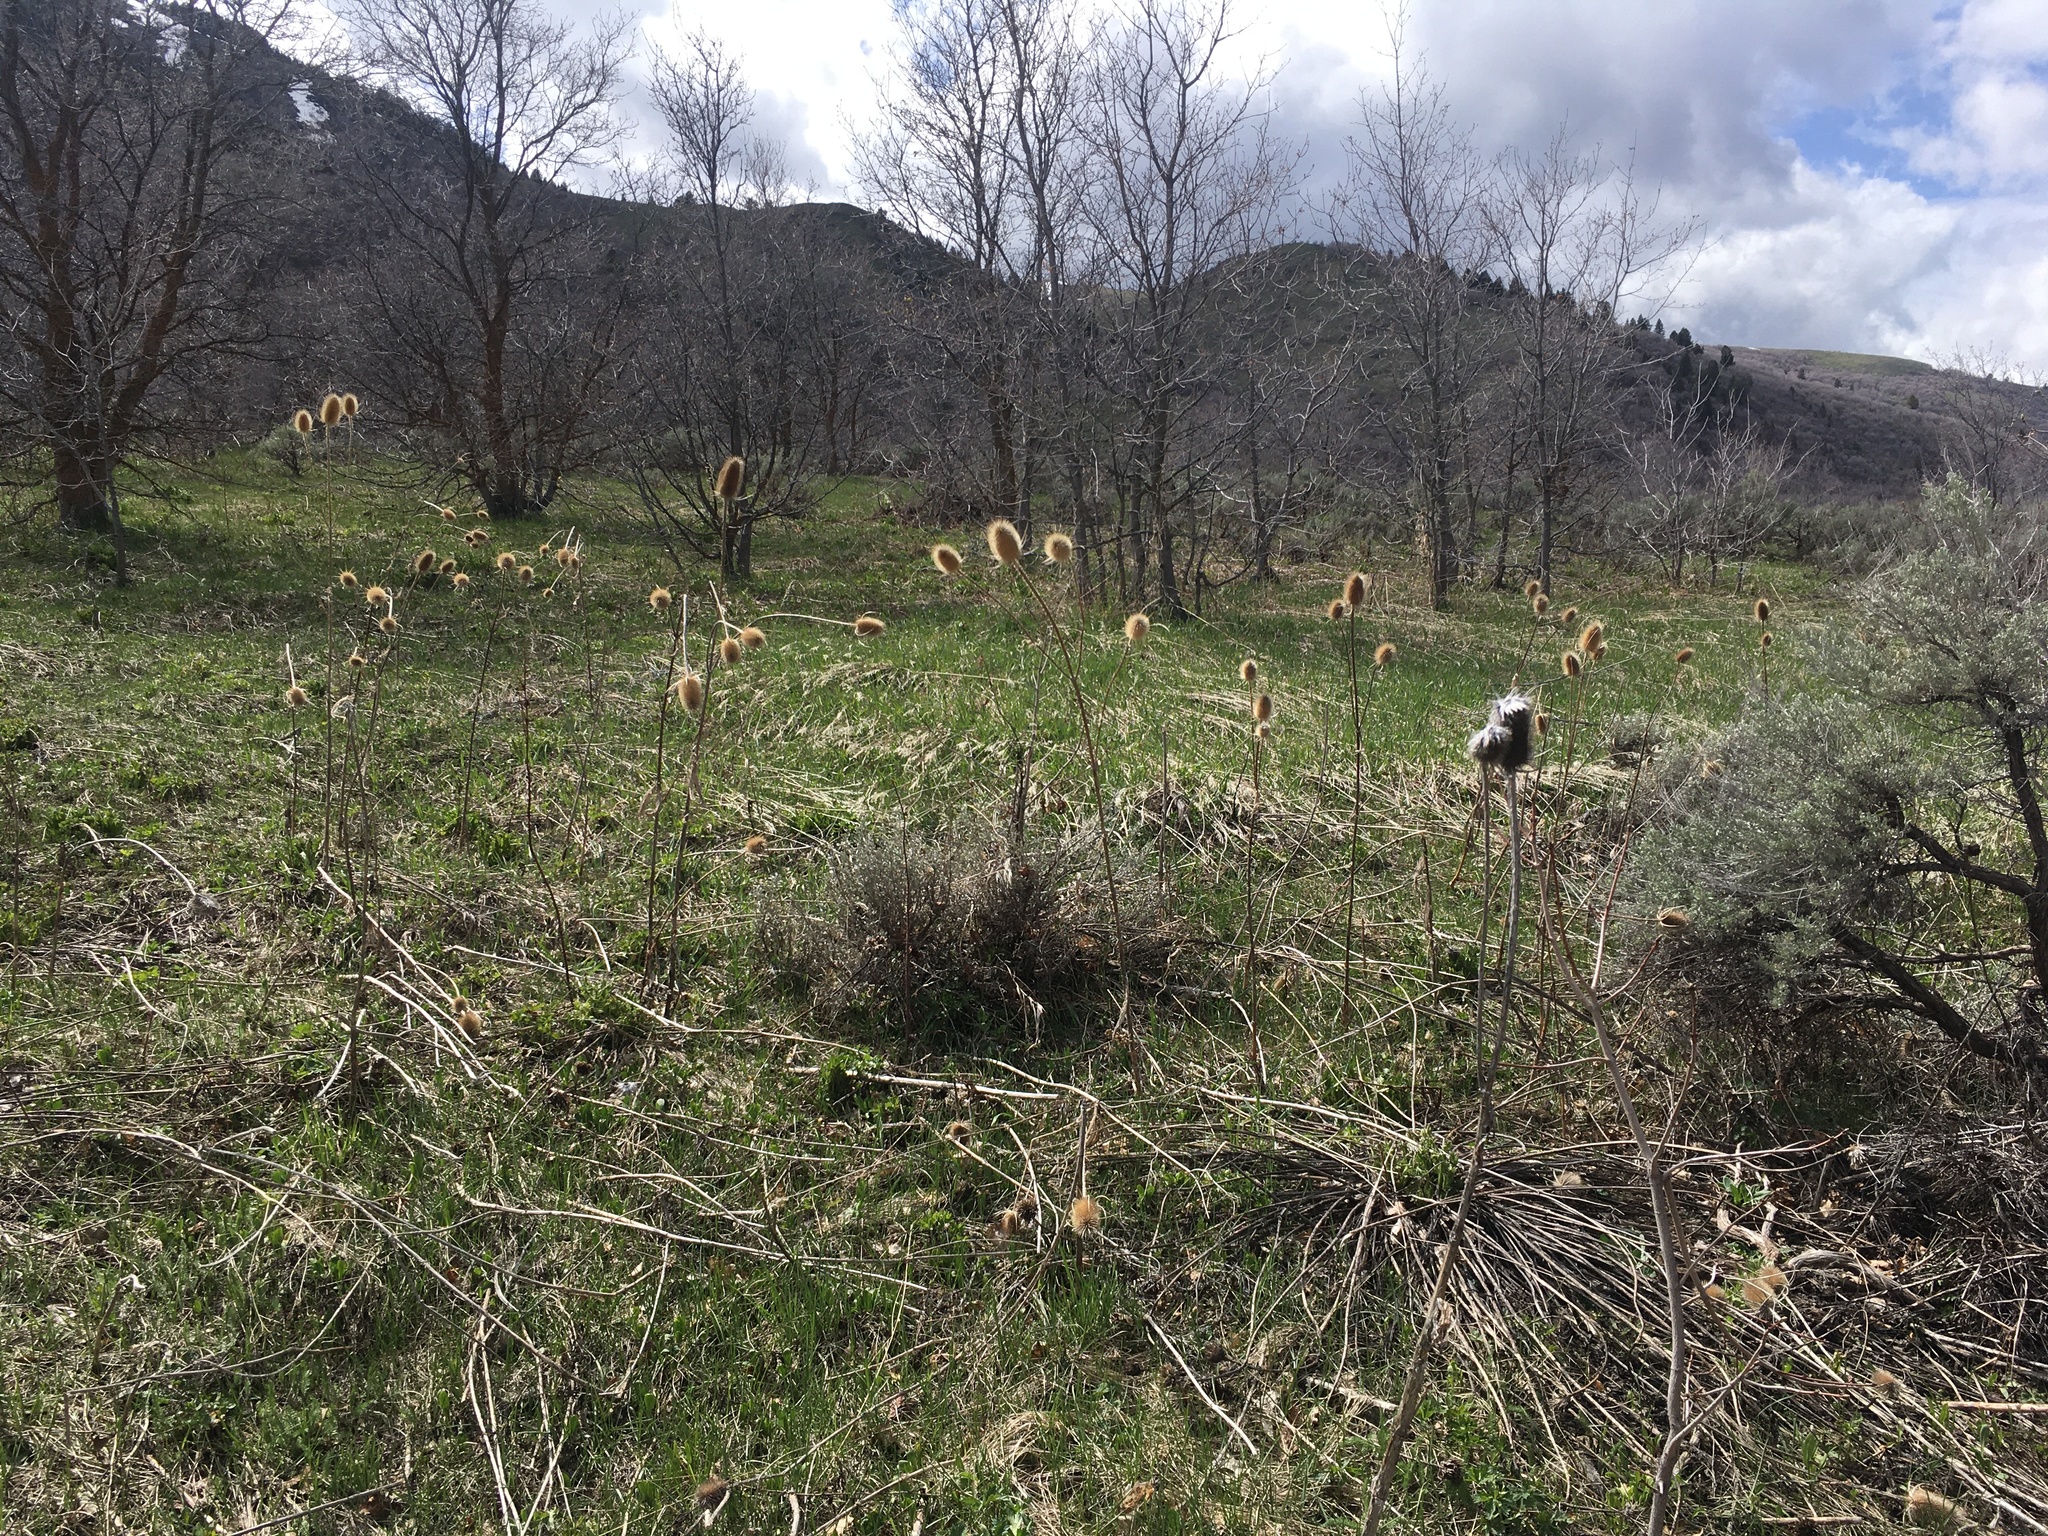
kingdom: Plantae
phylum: Tracheophyta
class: Magnoliopsida
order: Dipsacales
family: Caprifoliaceae
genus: Dipsacus
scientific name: Dipsacus fullonum
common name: Teasel
